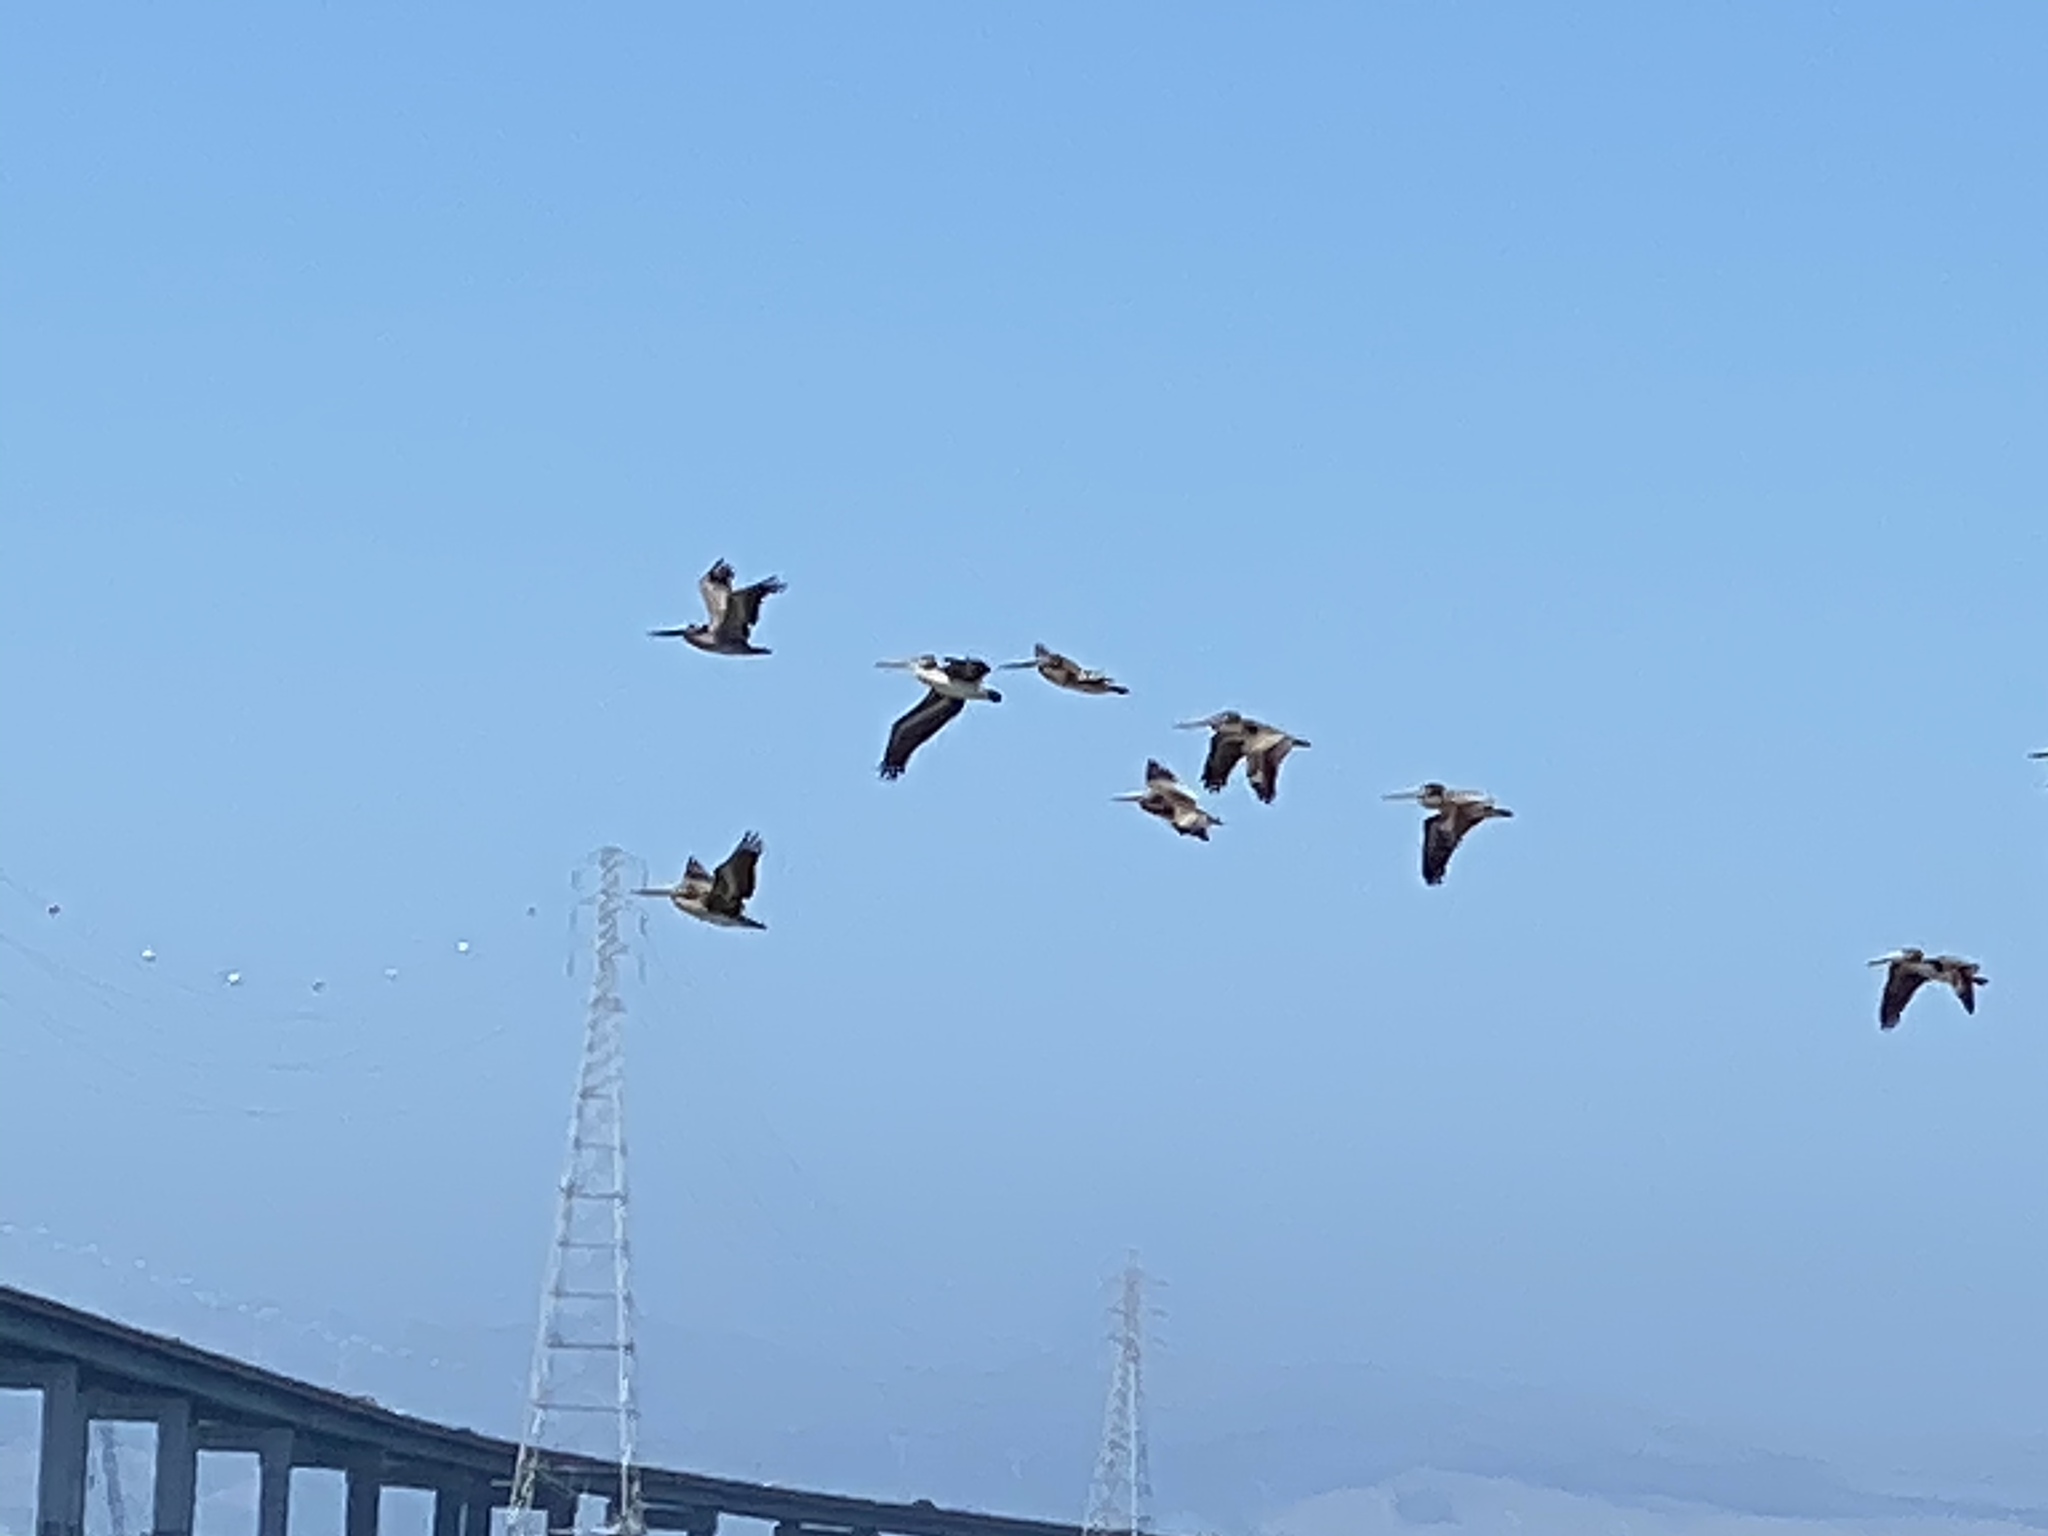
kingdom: Animalia
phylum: Chordata
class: Aves
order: Pelecaniformes
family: Pelecanidae
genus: Pelecanus
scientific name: Pelecanus occidentalis
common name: Brown pelican
